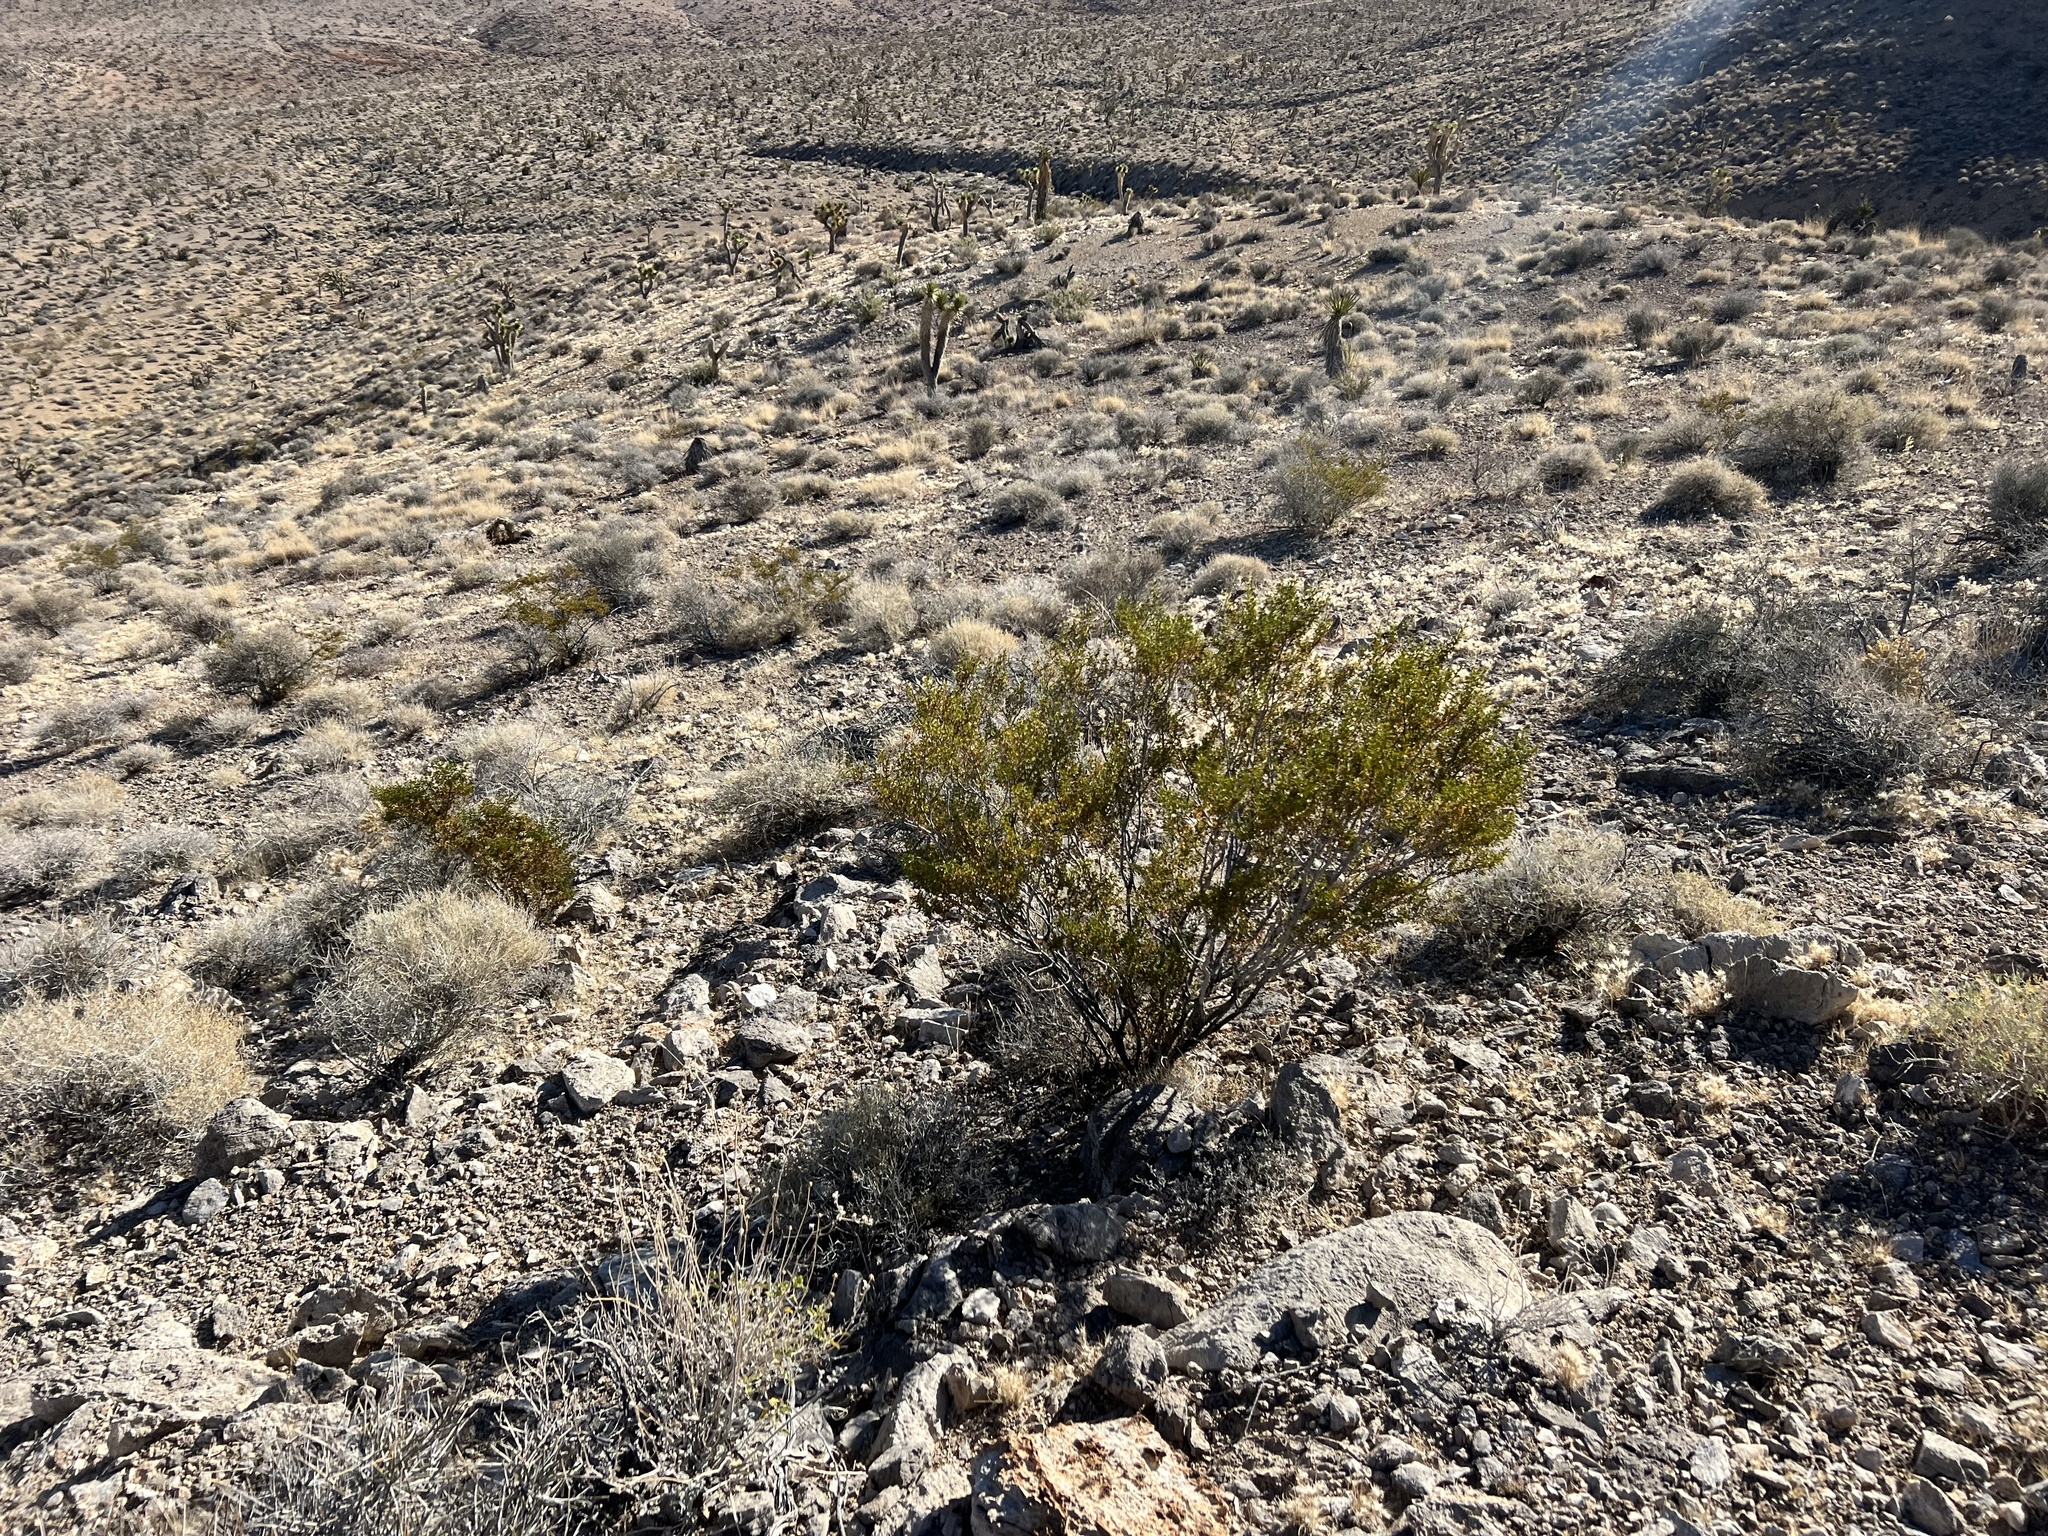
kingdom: Plantae
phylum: Tracheophyta
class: Magnoliopsida
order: Zygophyllales
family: Zygophyllaceae
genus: Larrea
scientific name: Larrea tridentata
